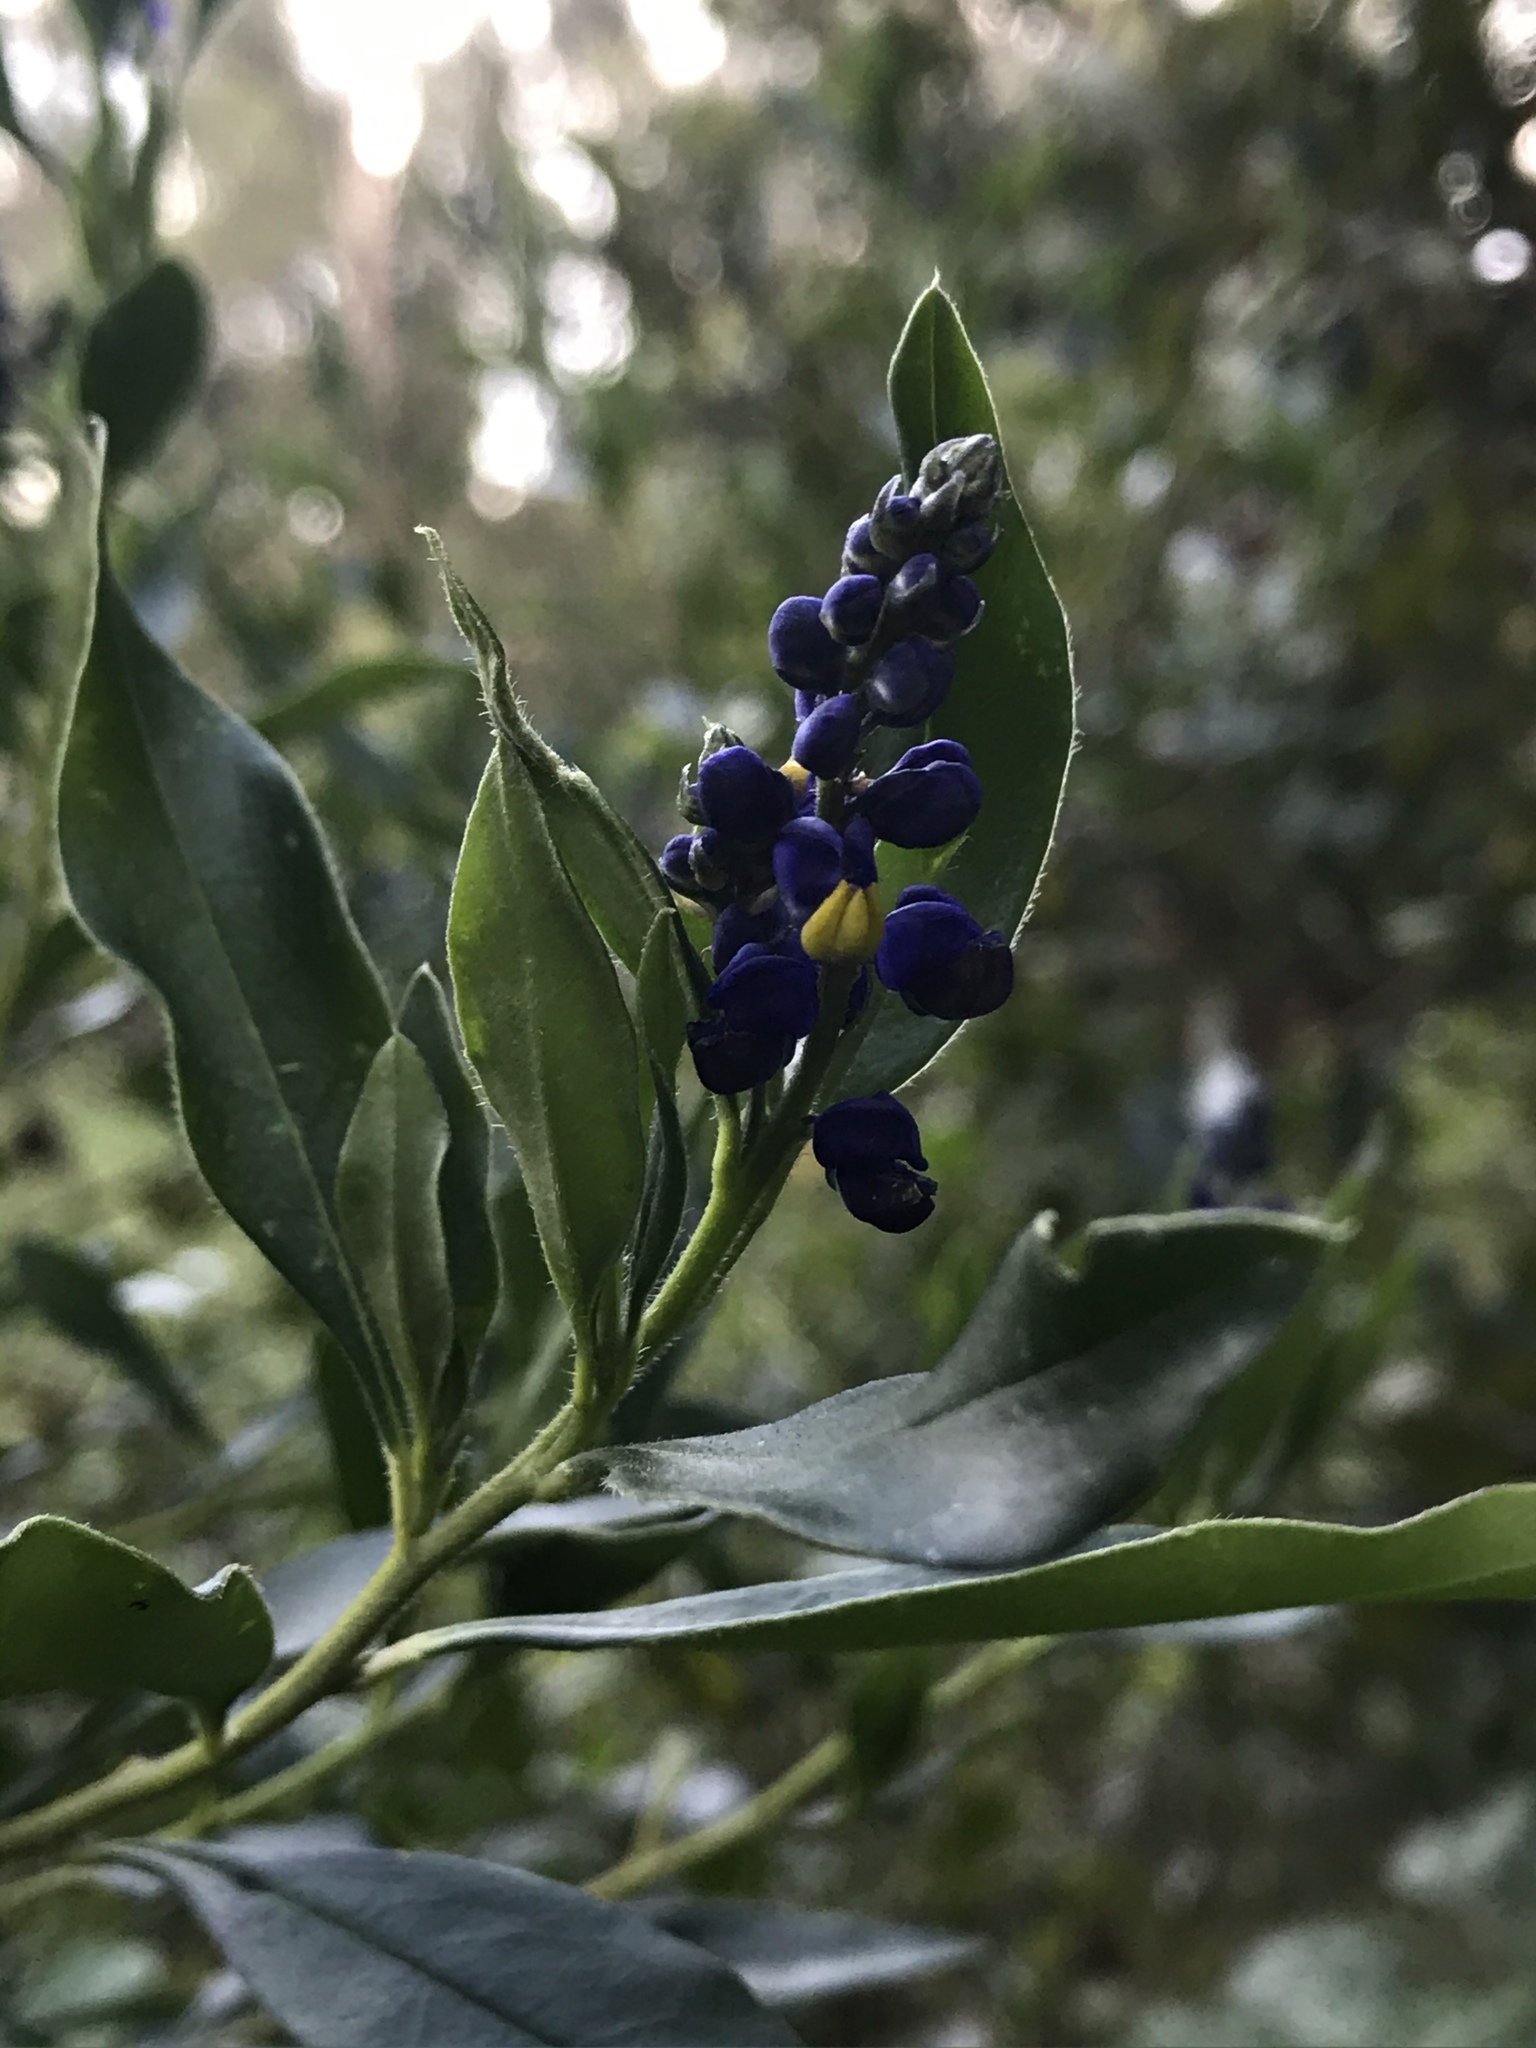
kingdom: Plantae
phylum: Tracheophyta
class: Magnoliopsida
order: Fabales
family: Polygalaceae
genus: Monnina
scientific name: Monnina aestuans
